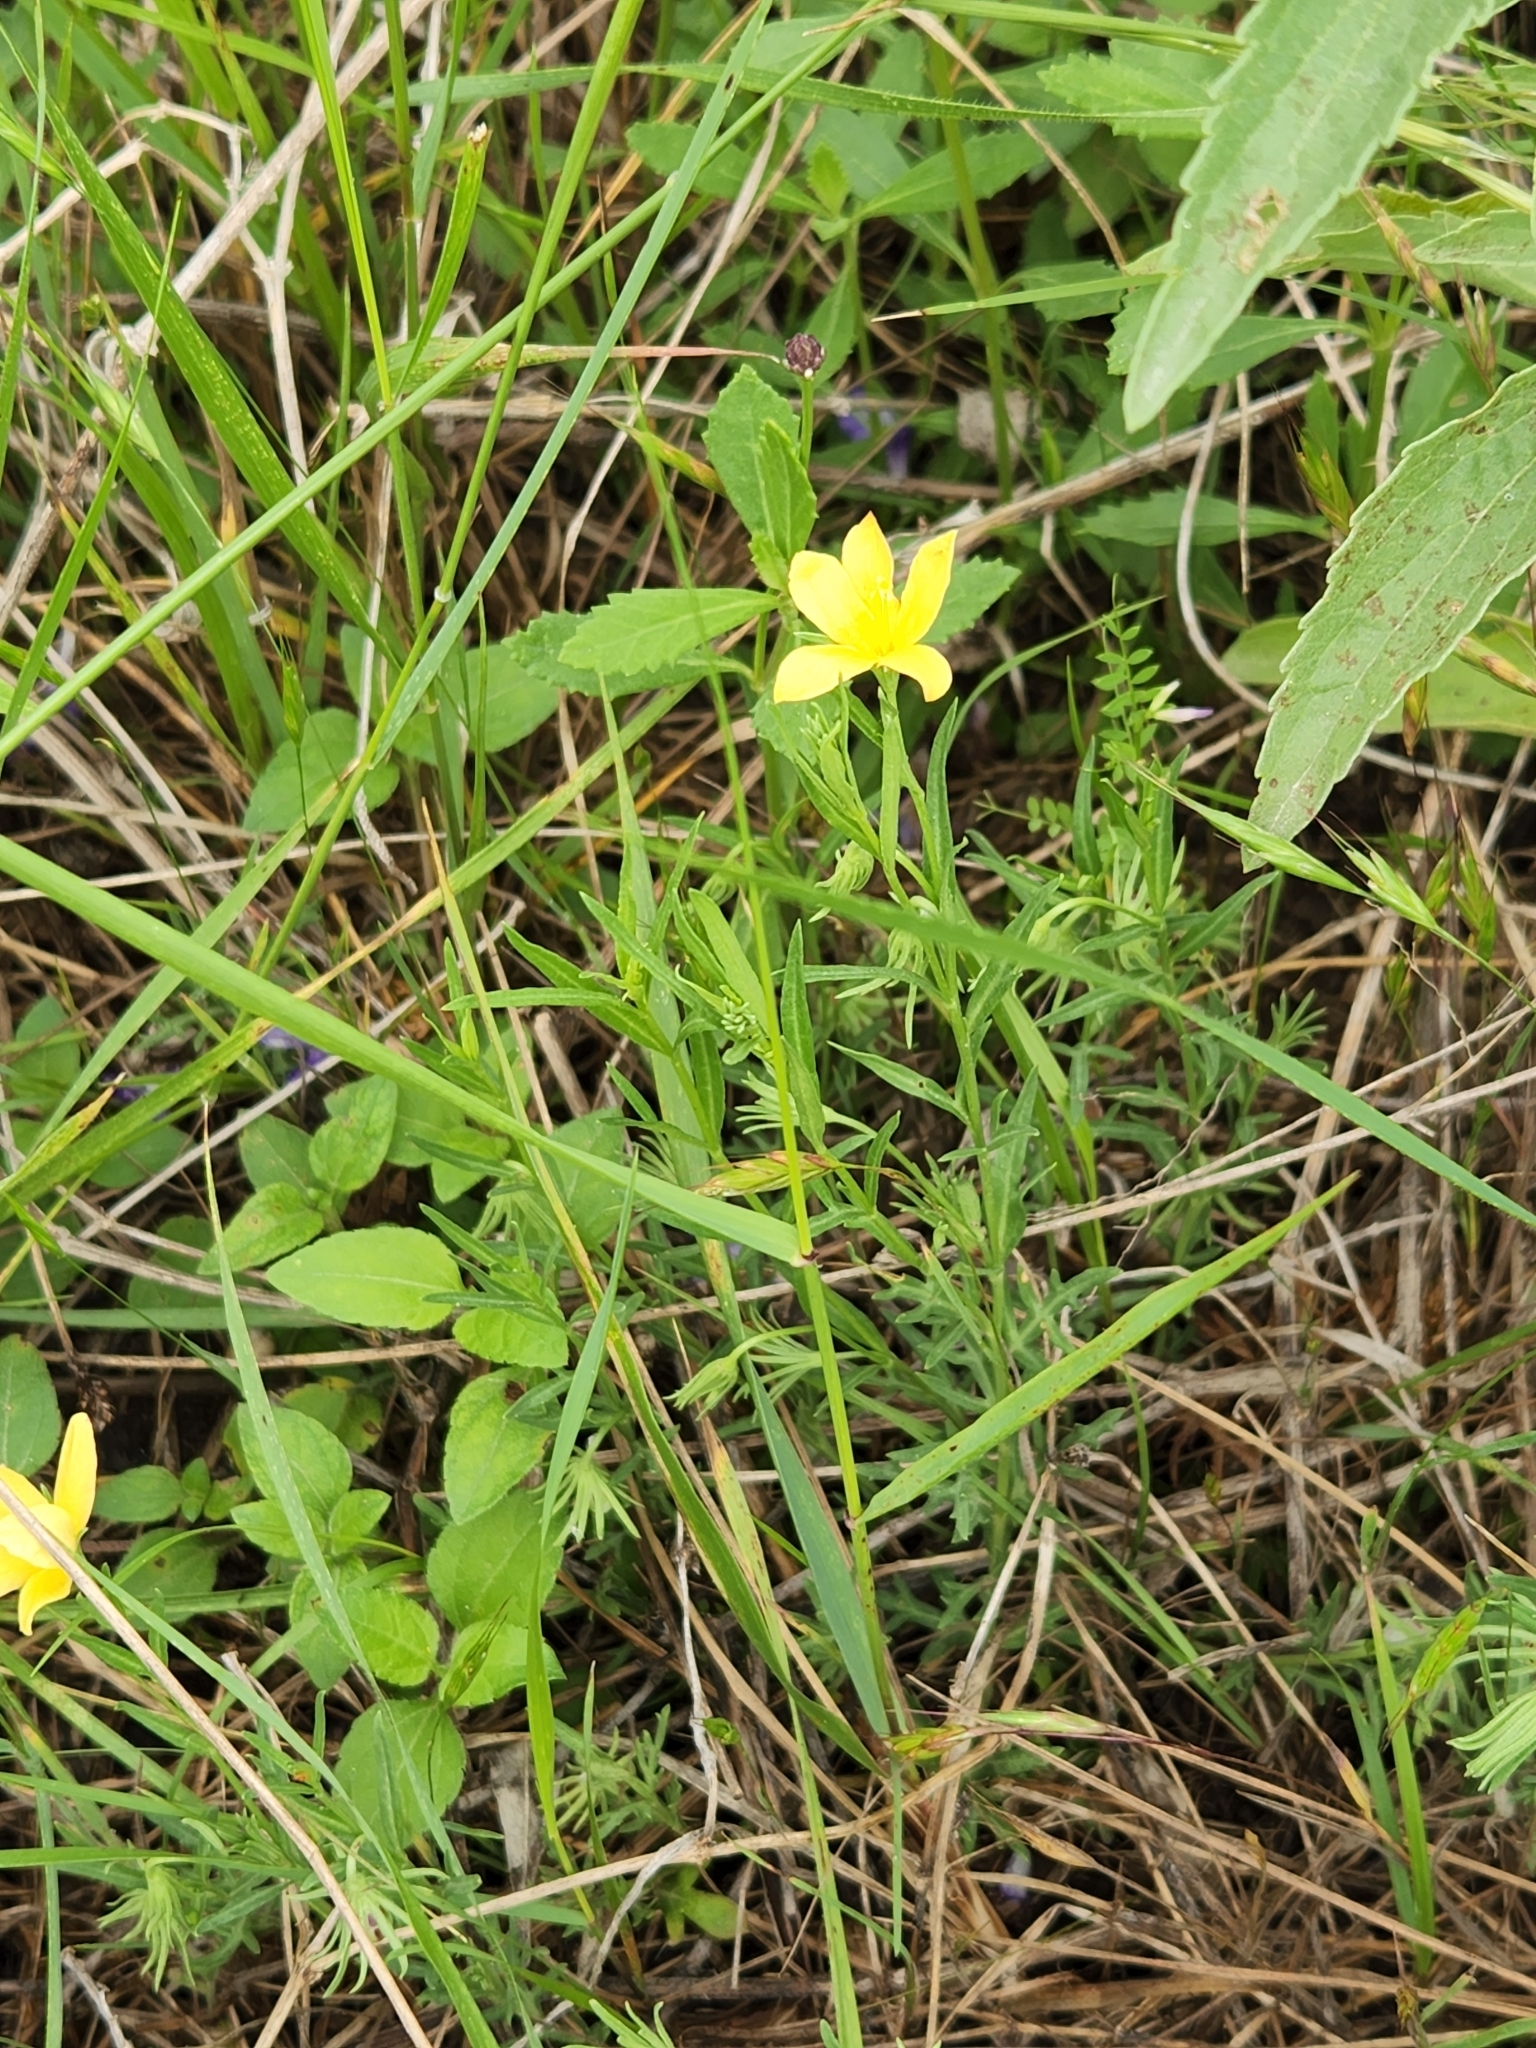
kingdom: Plantae
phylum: Tracheophyta
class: Magnoliopsida
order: Lamiales
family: Oleaceae
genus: Menodora
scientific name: Menodora heterophylla
